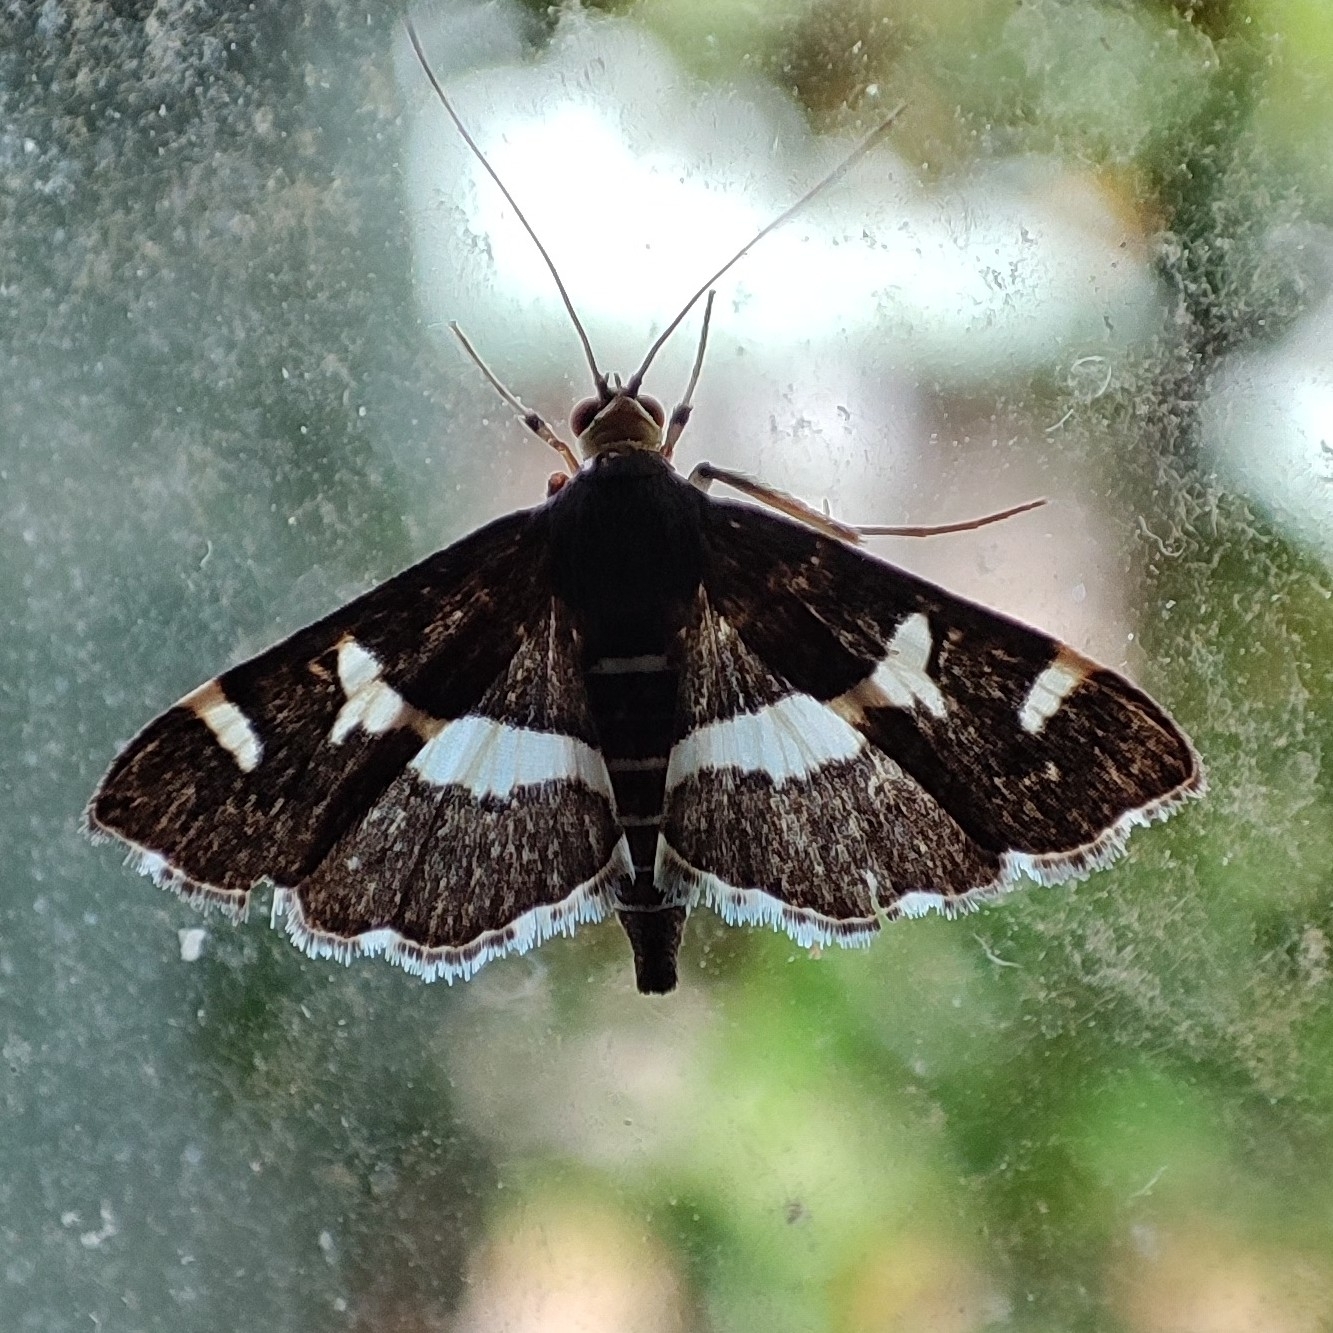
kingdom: Animalia
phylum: Arthropoda
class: Insecta
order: Lepidoptera
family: Crambidae
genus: Spoladea
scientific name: Spoladea recurvalis
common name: Beet webworm moth
